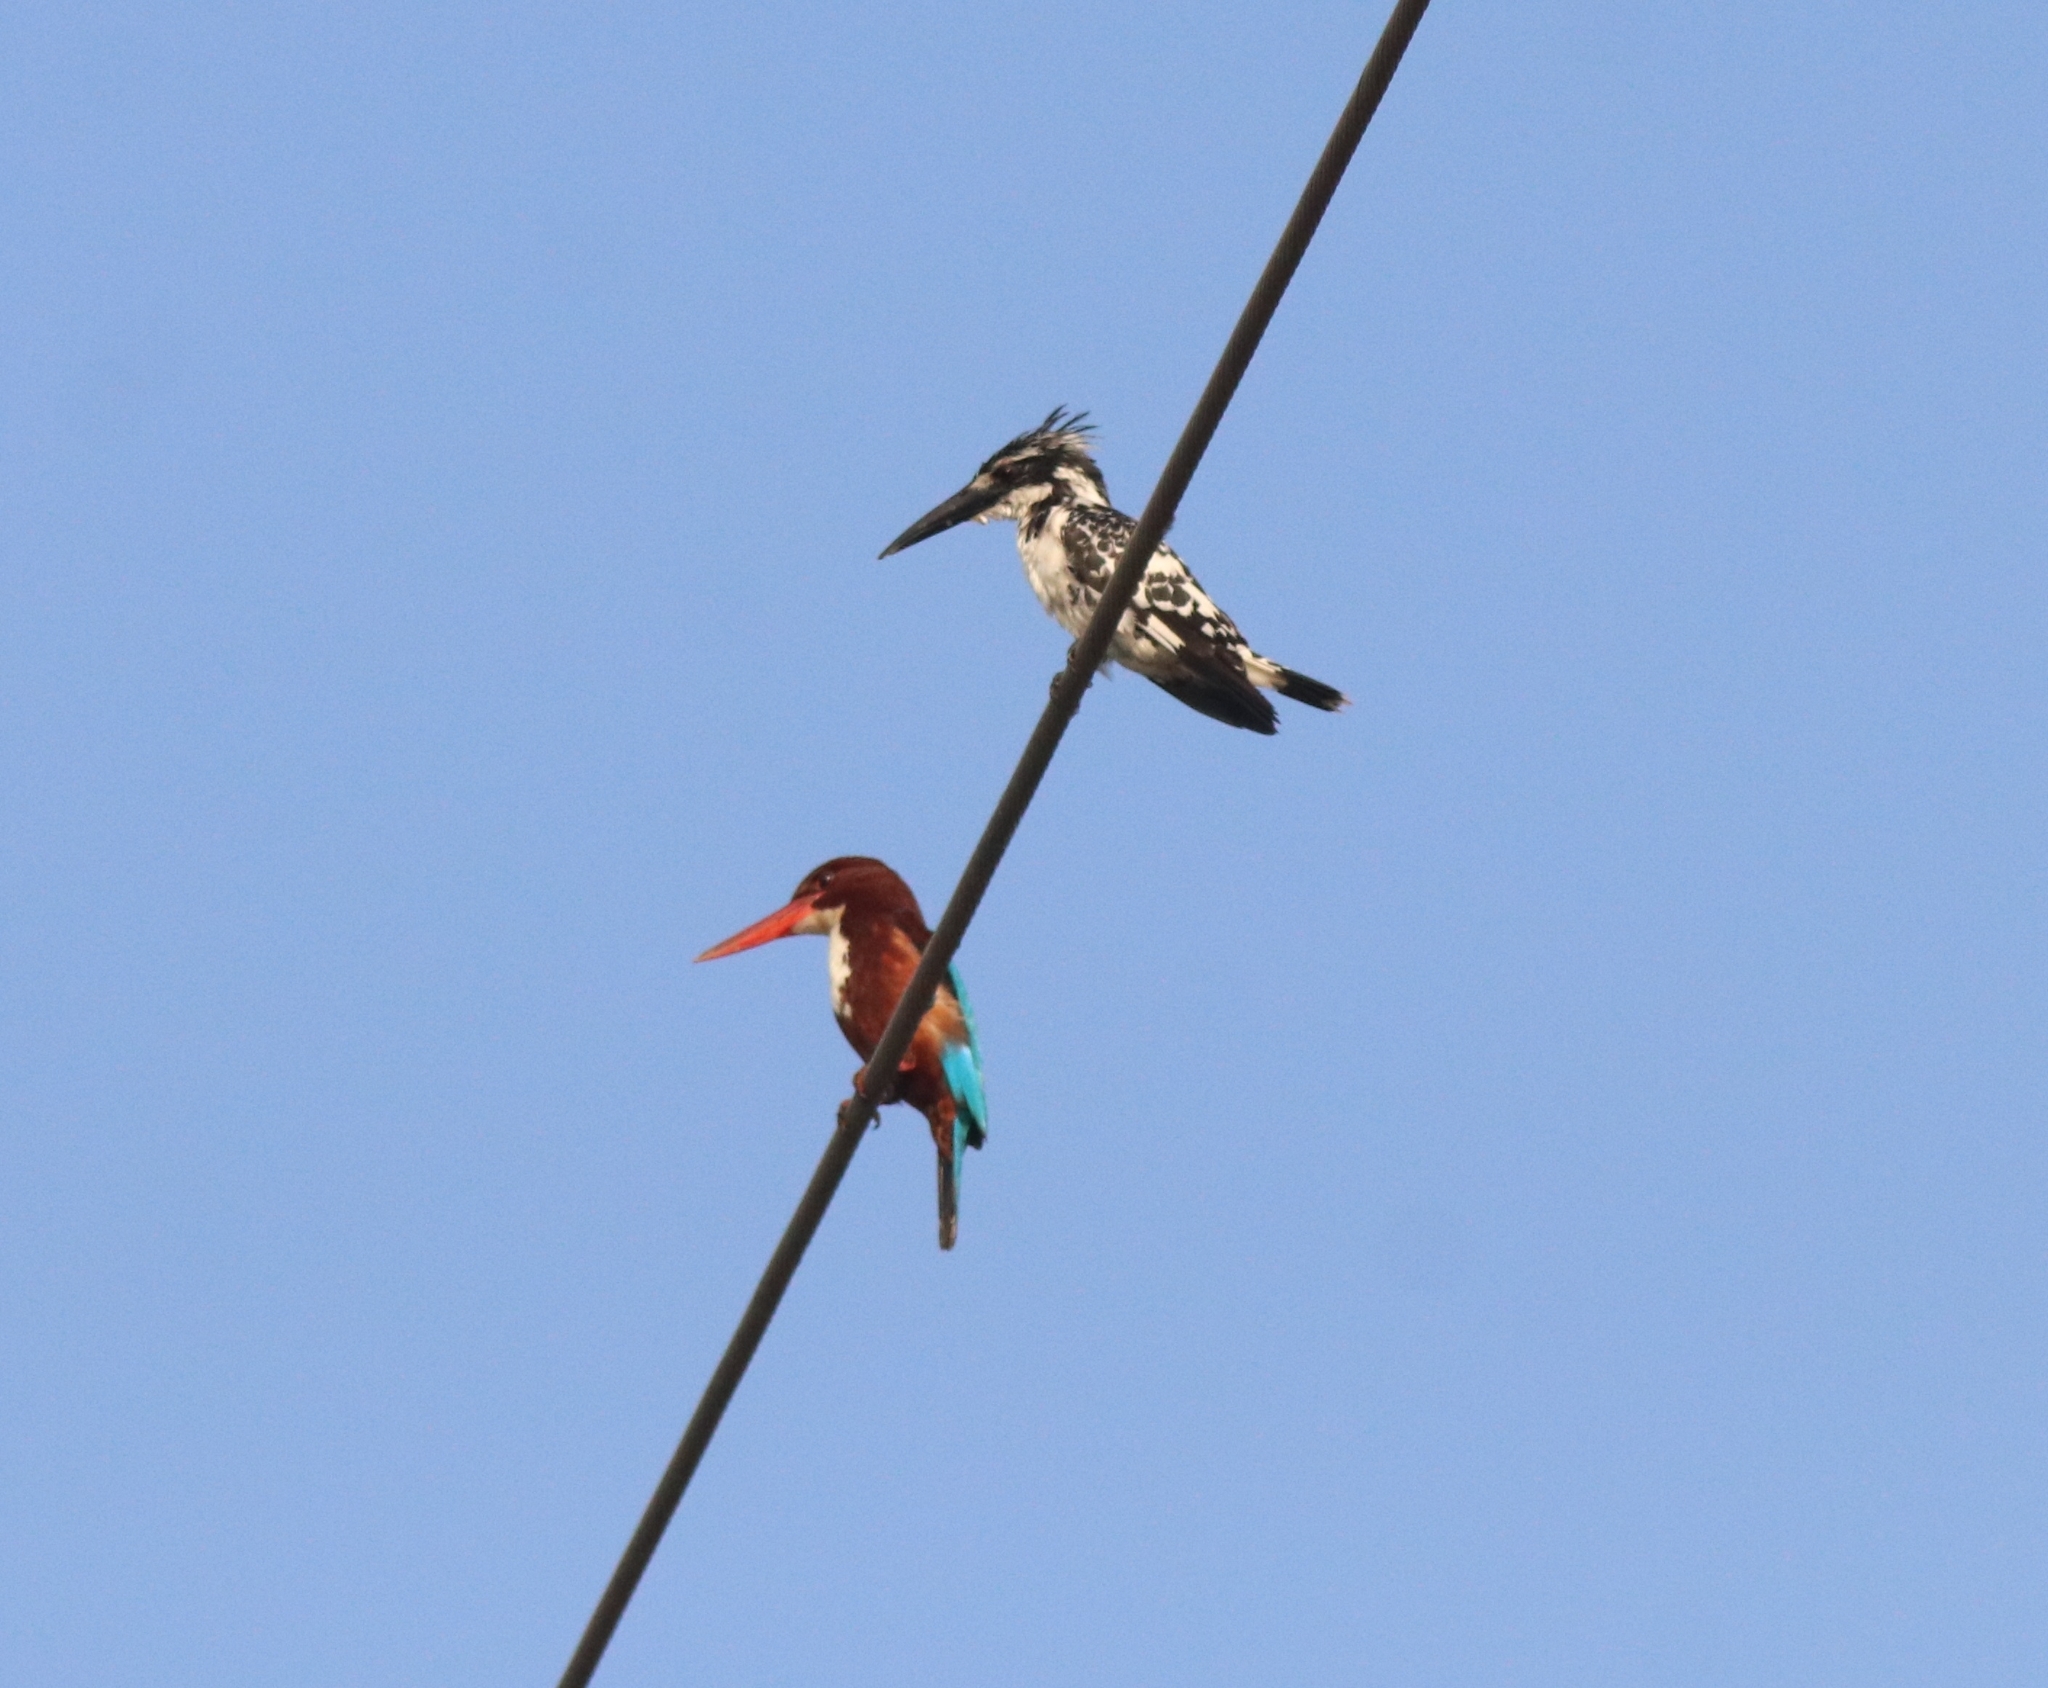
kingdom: Animalia
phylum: Chordata
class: Aves
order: Coraciiformes
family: Alcedinidae
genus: Ceryle
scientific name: Ceryle rudis
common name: Pied kingfisher
